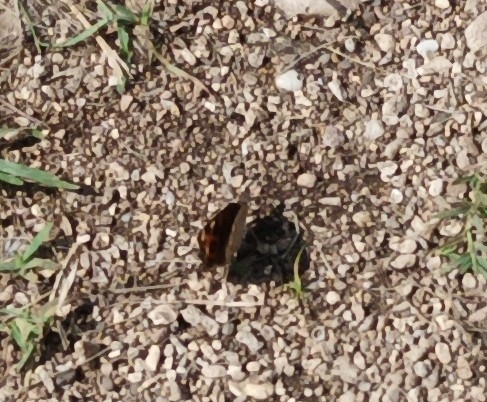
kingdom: Animalia
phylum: Arthropoda
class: Insecta
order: Lepidoptera
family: Nymphalidae
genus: Junonia
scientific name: Junonia villida
